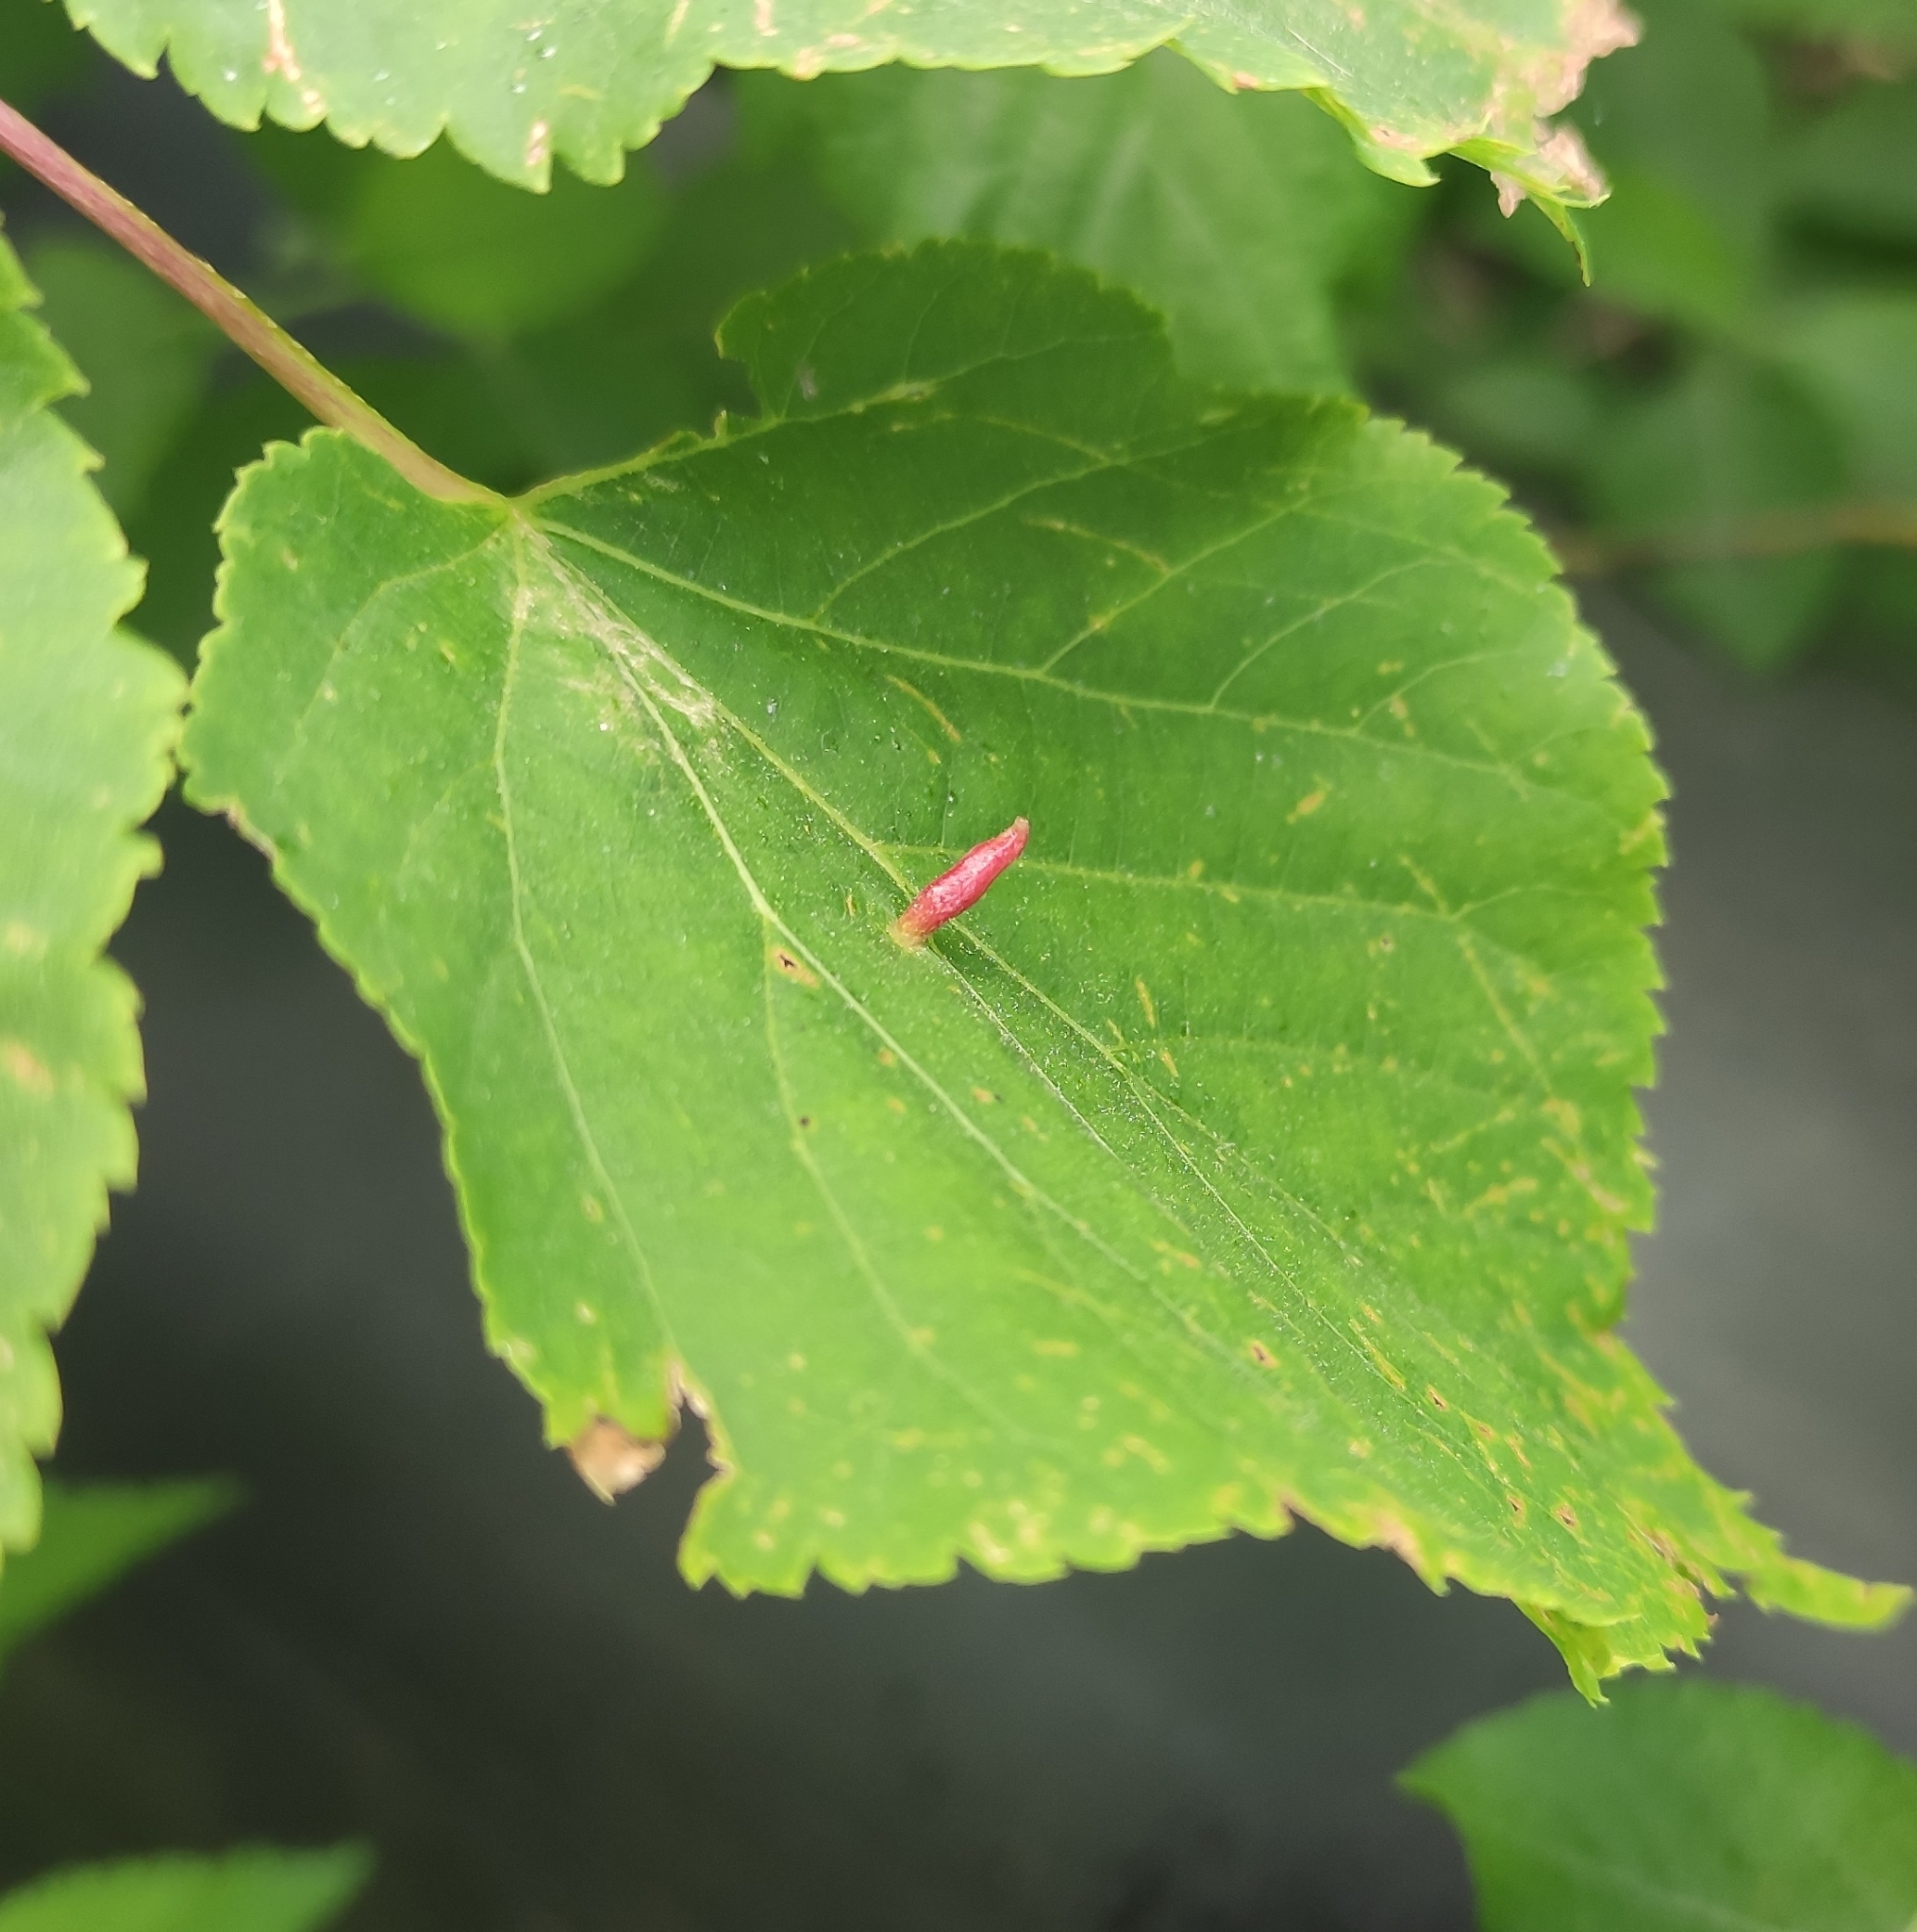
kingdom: Animalia
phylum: Arthropoda
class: Arachnida
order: Trombidiformes
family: Eriophyidae
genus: Eriophyes
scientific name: Eriophyes tiliae
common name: Red nail gall mite
